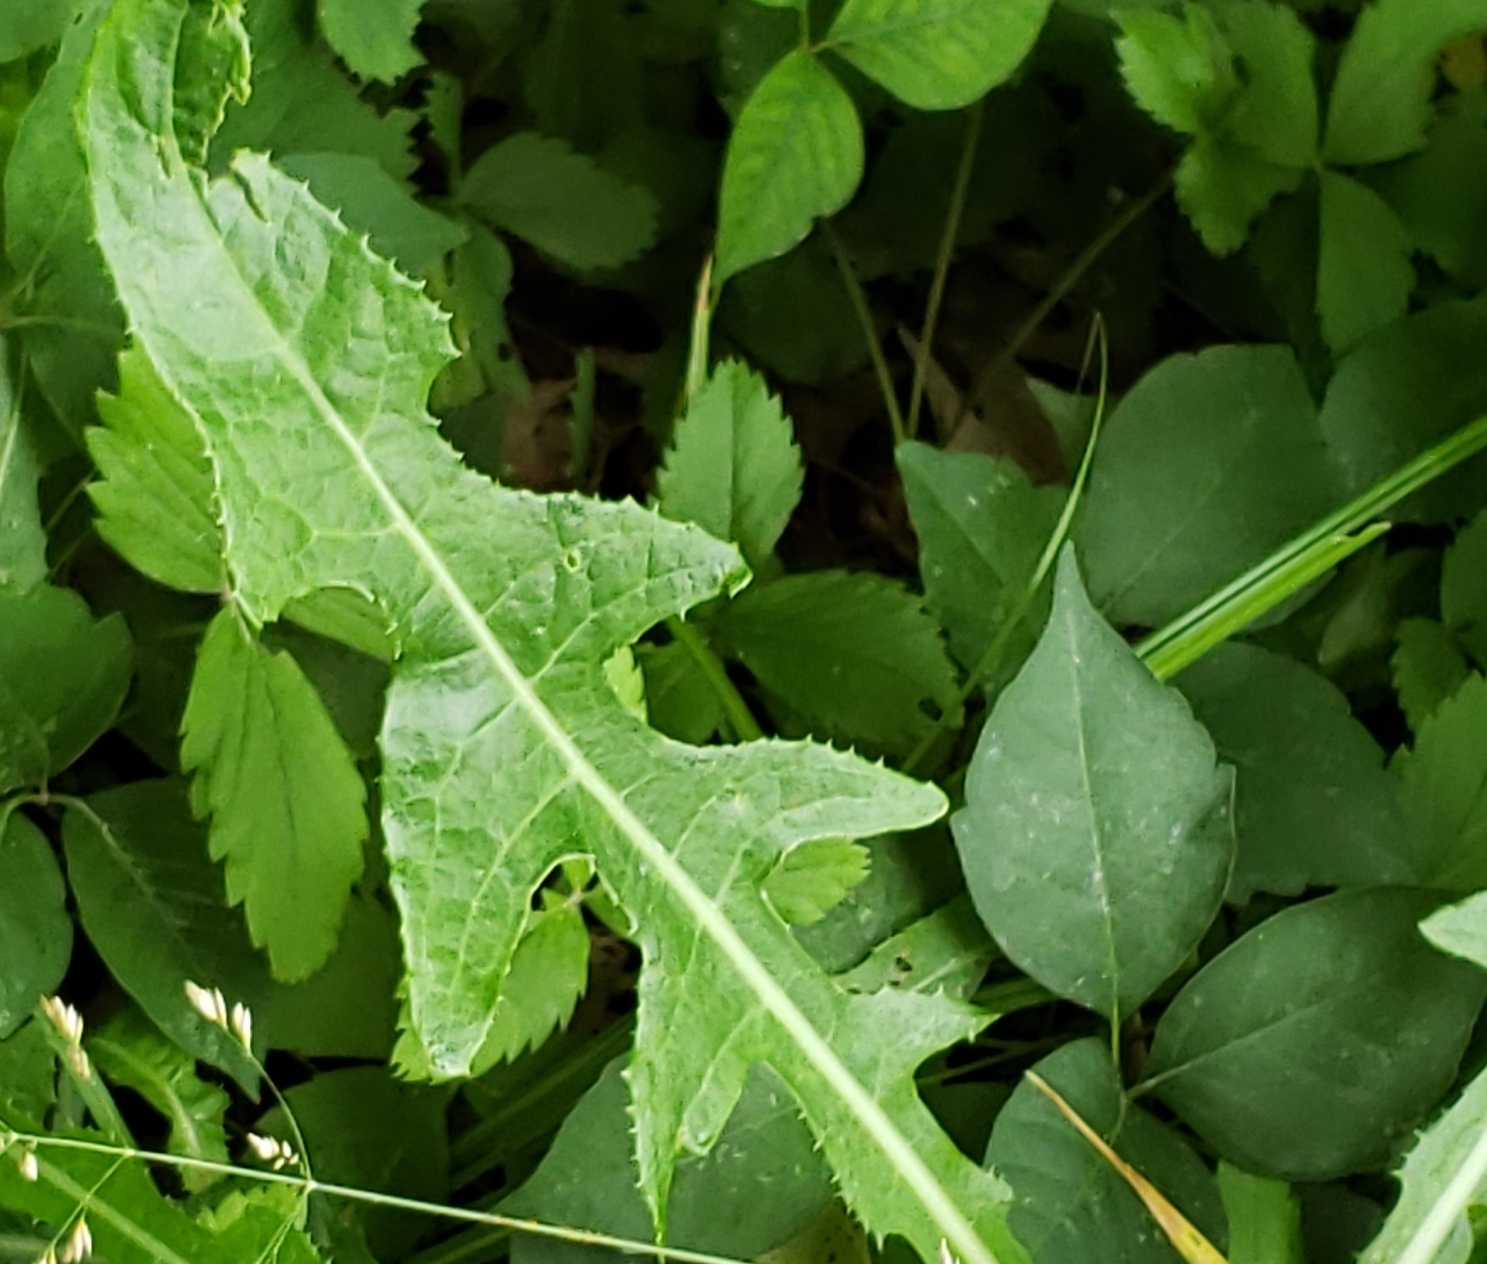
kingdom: Plantae
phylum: Tracheophyta
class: Magnoliopsida
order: Asterales
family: Asteraceae
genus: Sonchus
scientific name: Sonchus arvensis
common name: Perennial sow-thistle
